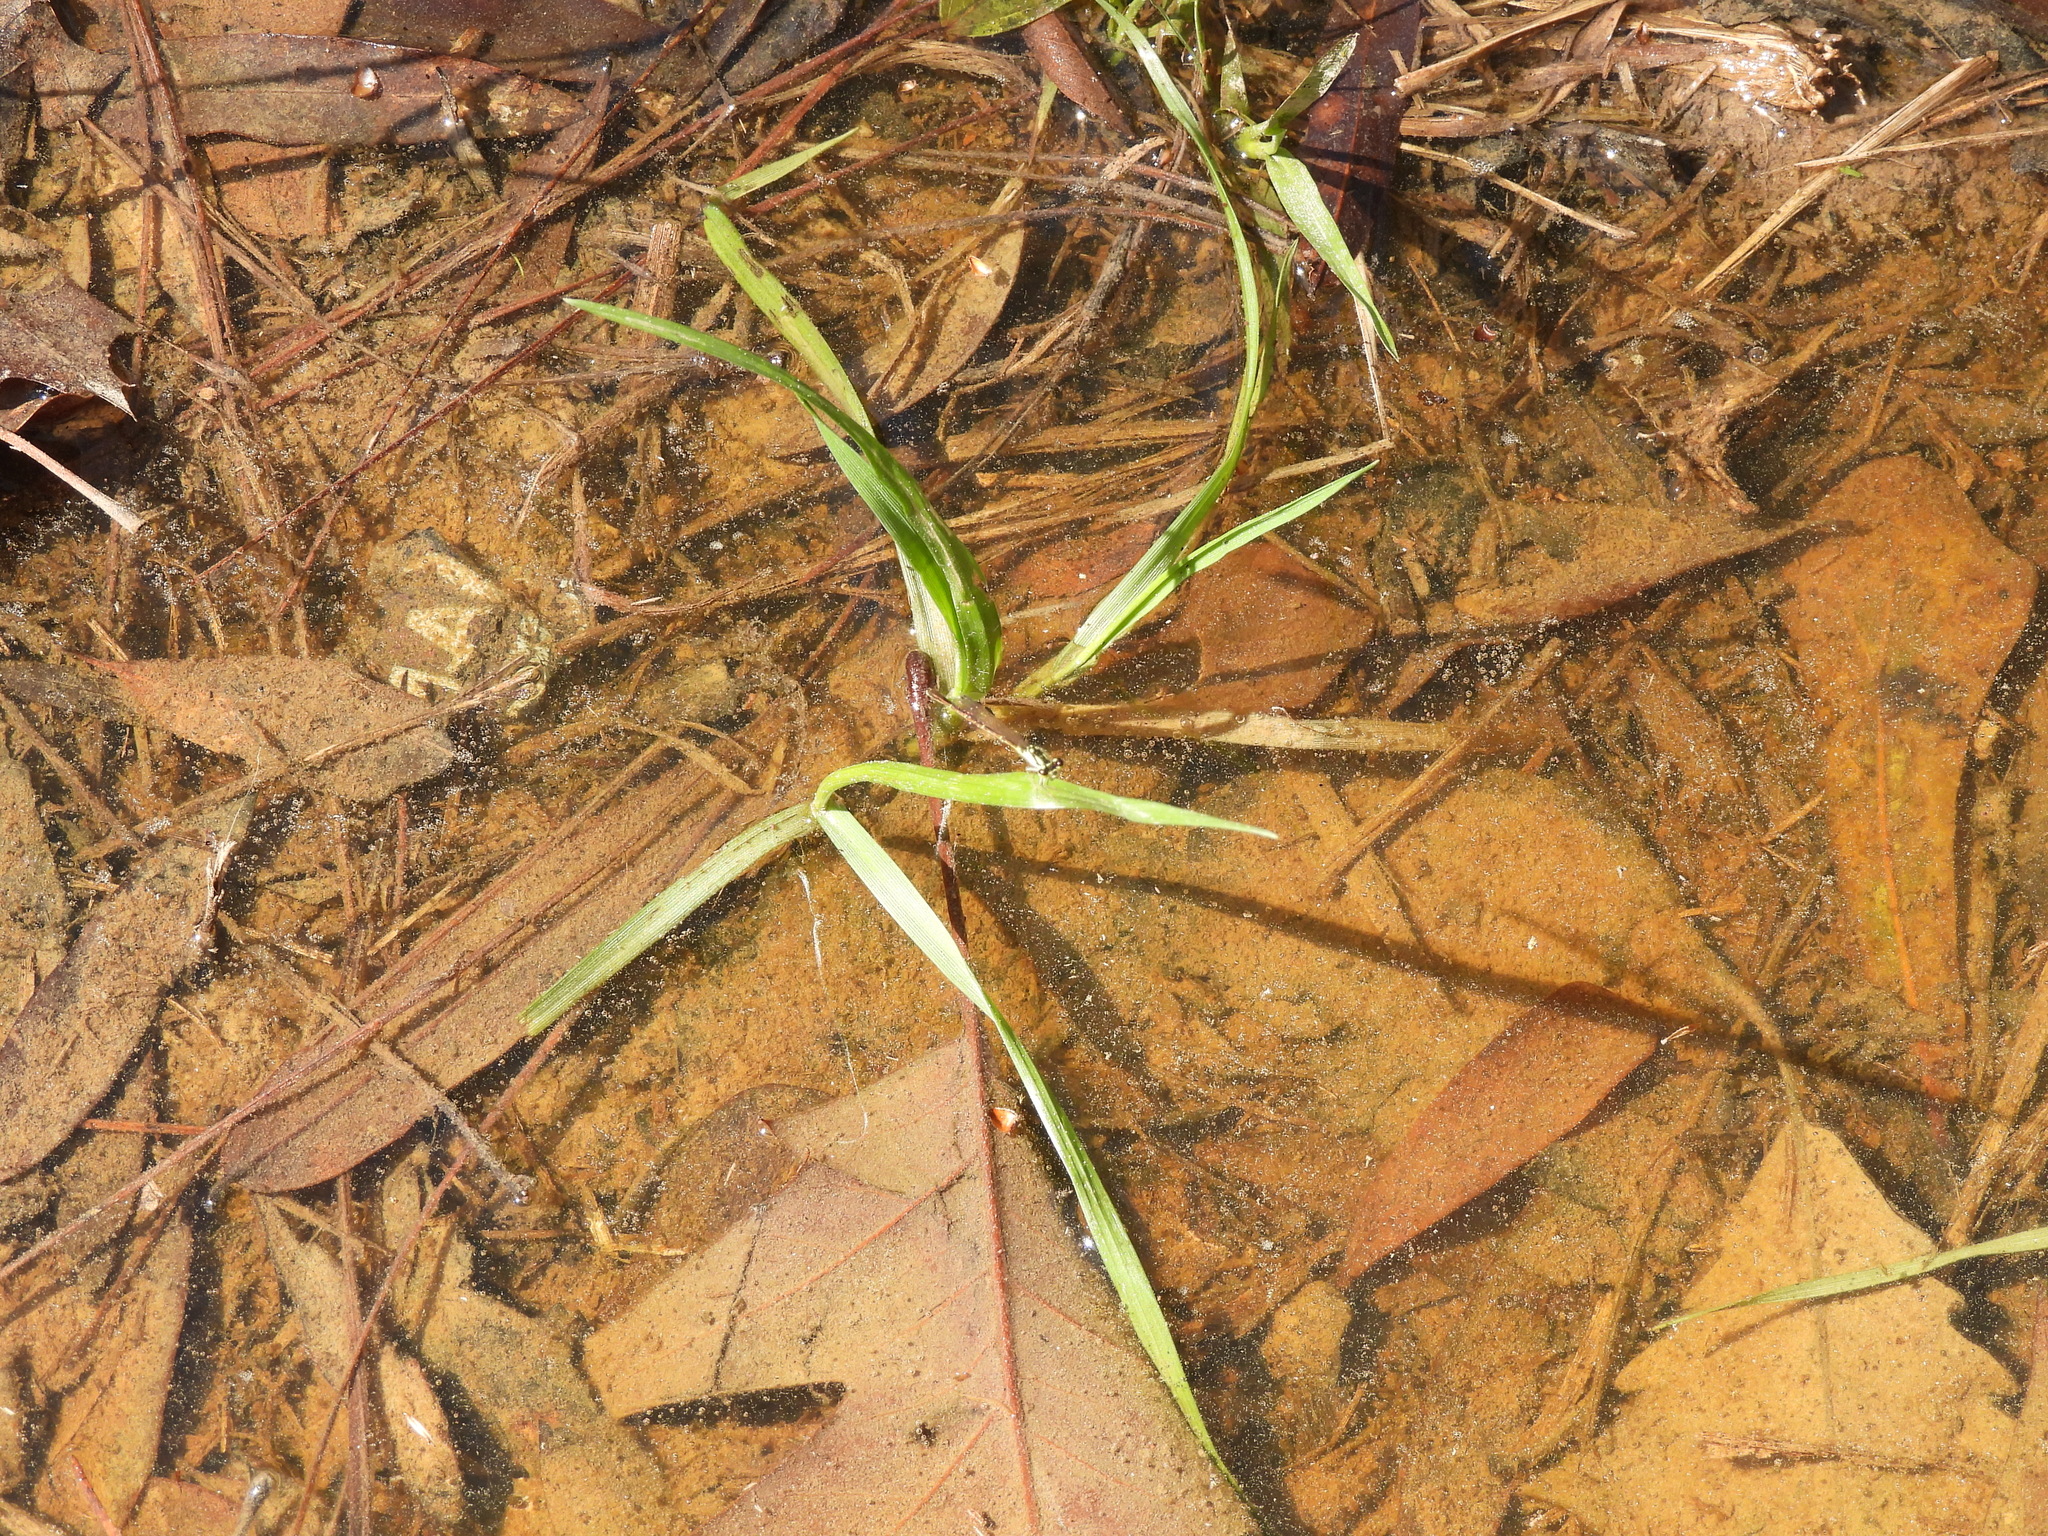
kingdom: Animalia
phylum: Arthropoda
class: Insecta
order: Odonata
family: Coenagrionidae
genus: Ischnura
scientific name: Ischnura posita
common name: Fragile forktail
